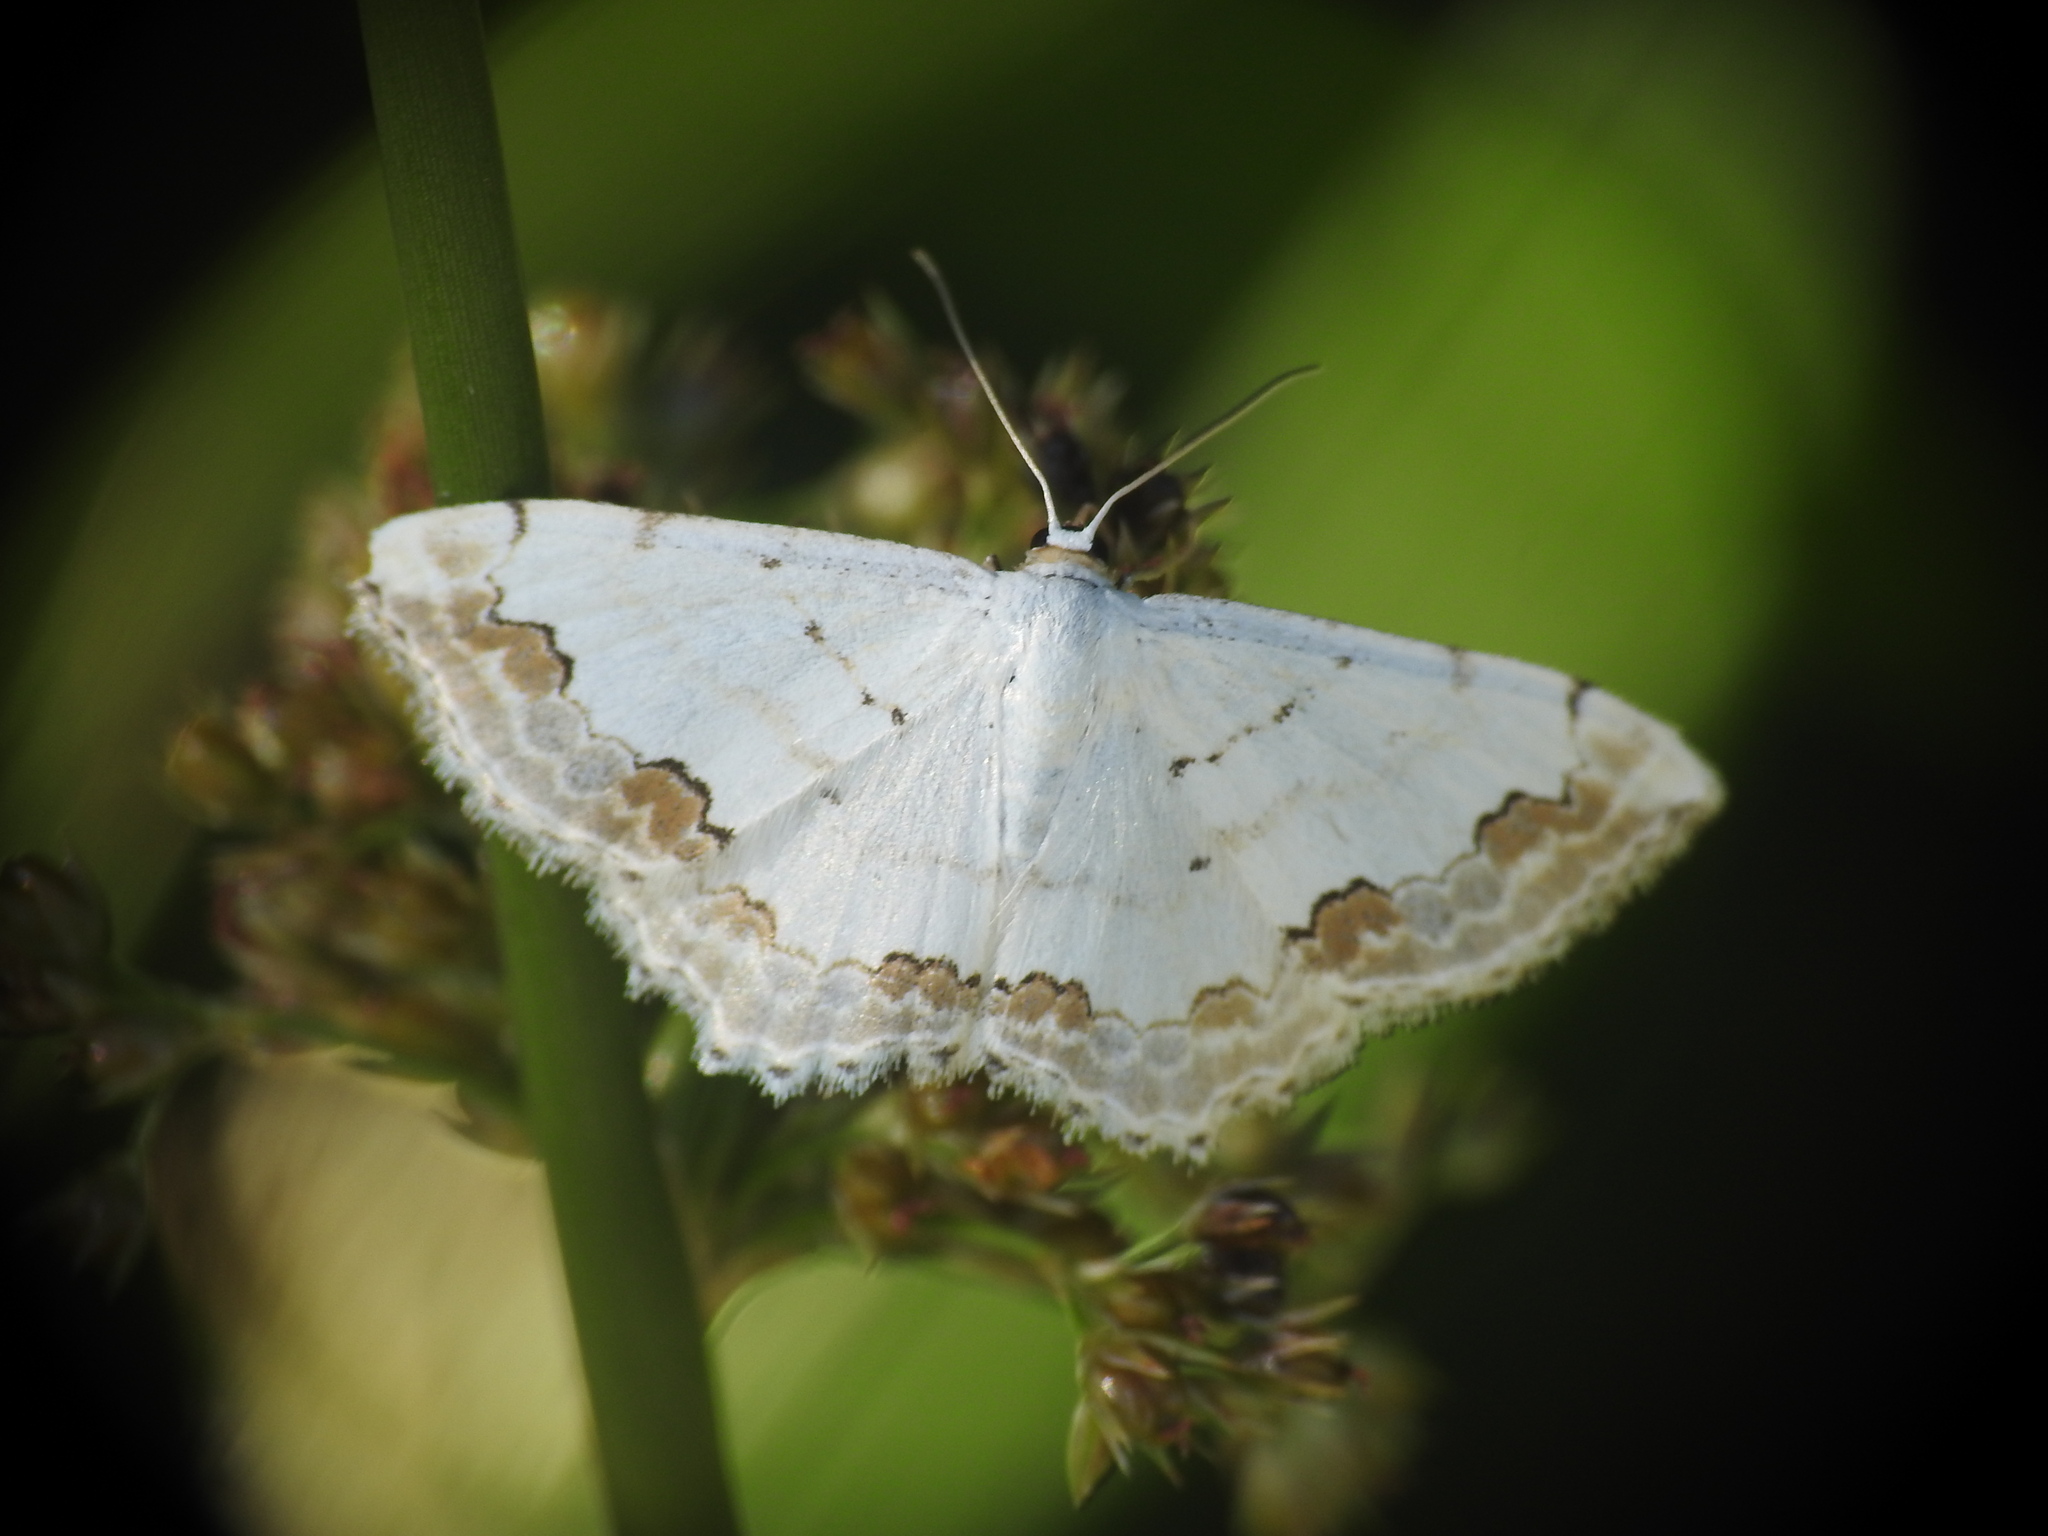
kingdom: Animalia
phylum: Arthropoda
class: Insecta
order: Lepidoptera
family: Geometridae
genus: Scopula
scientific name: Scopula ornata
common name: Lace border
